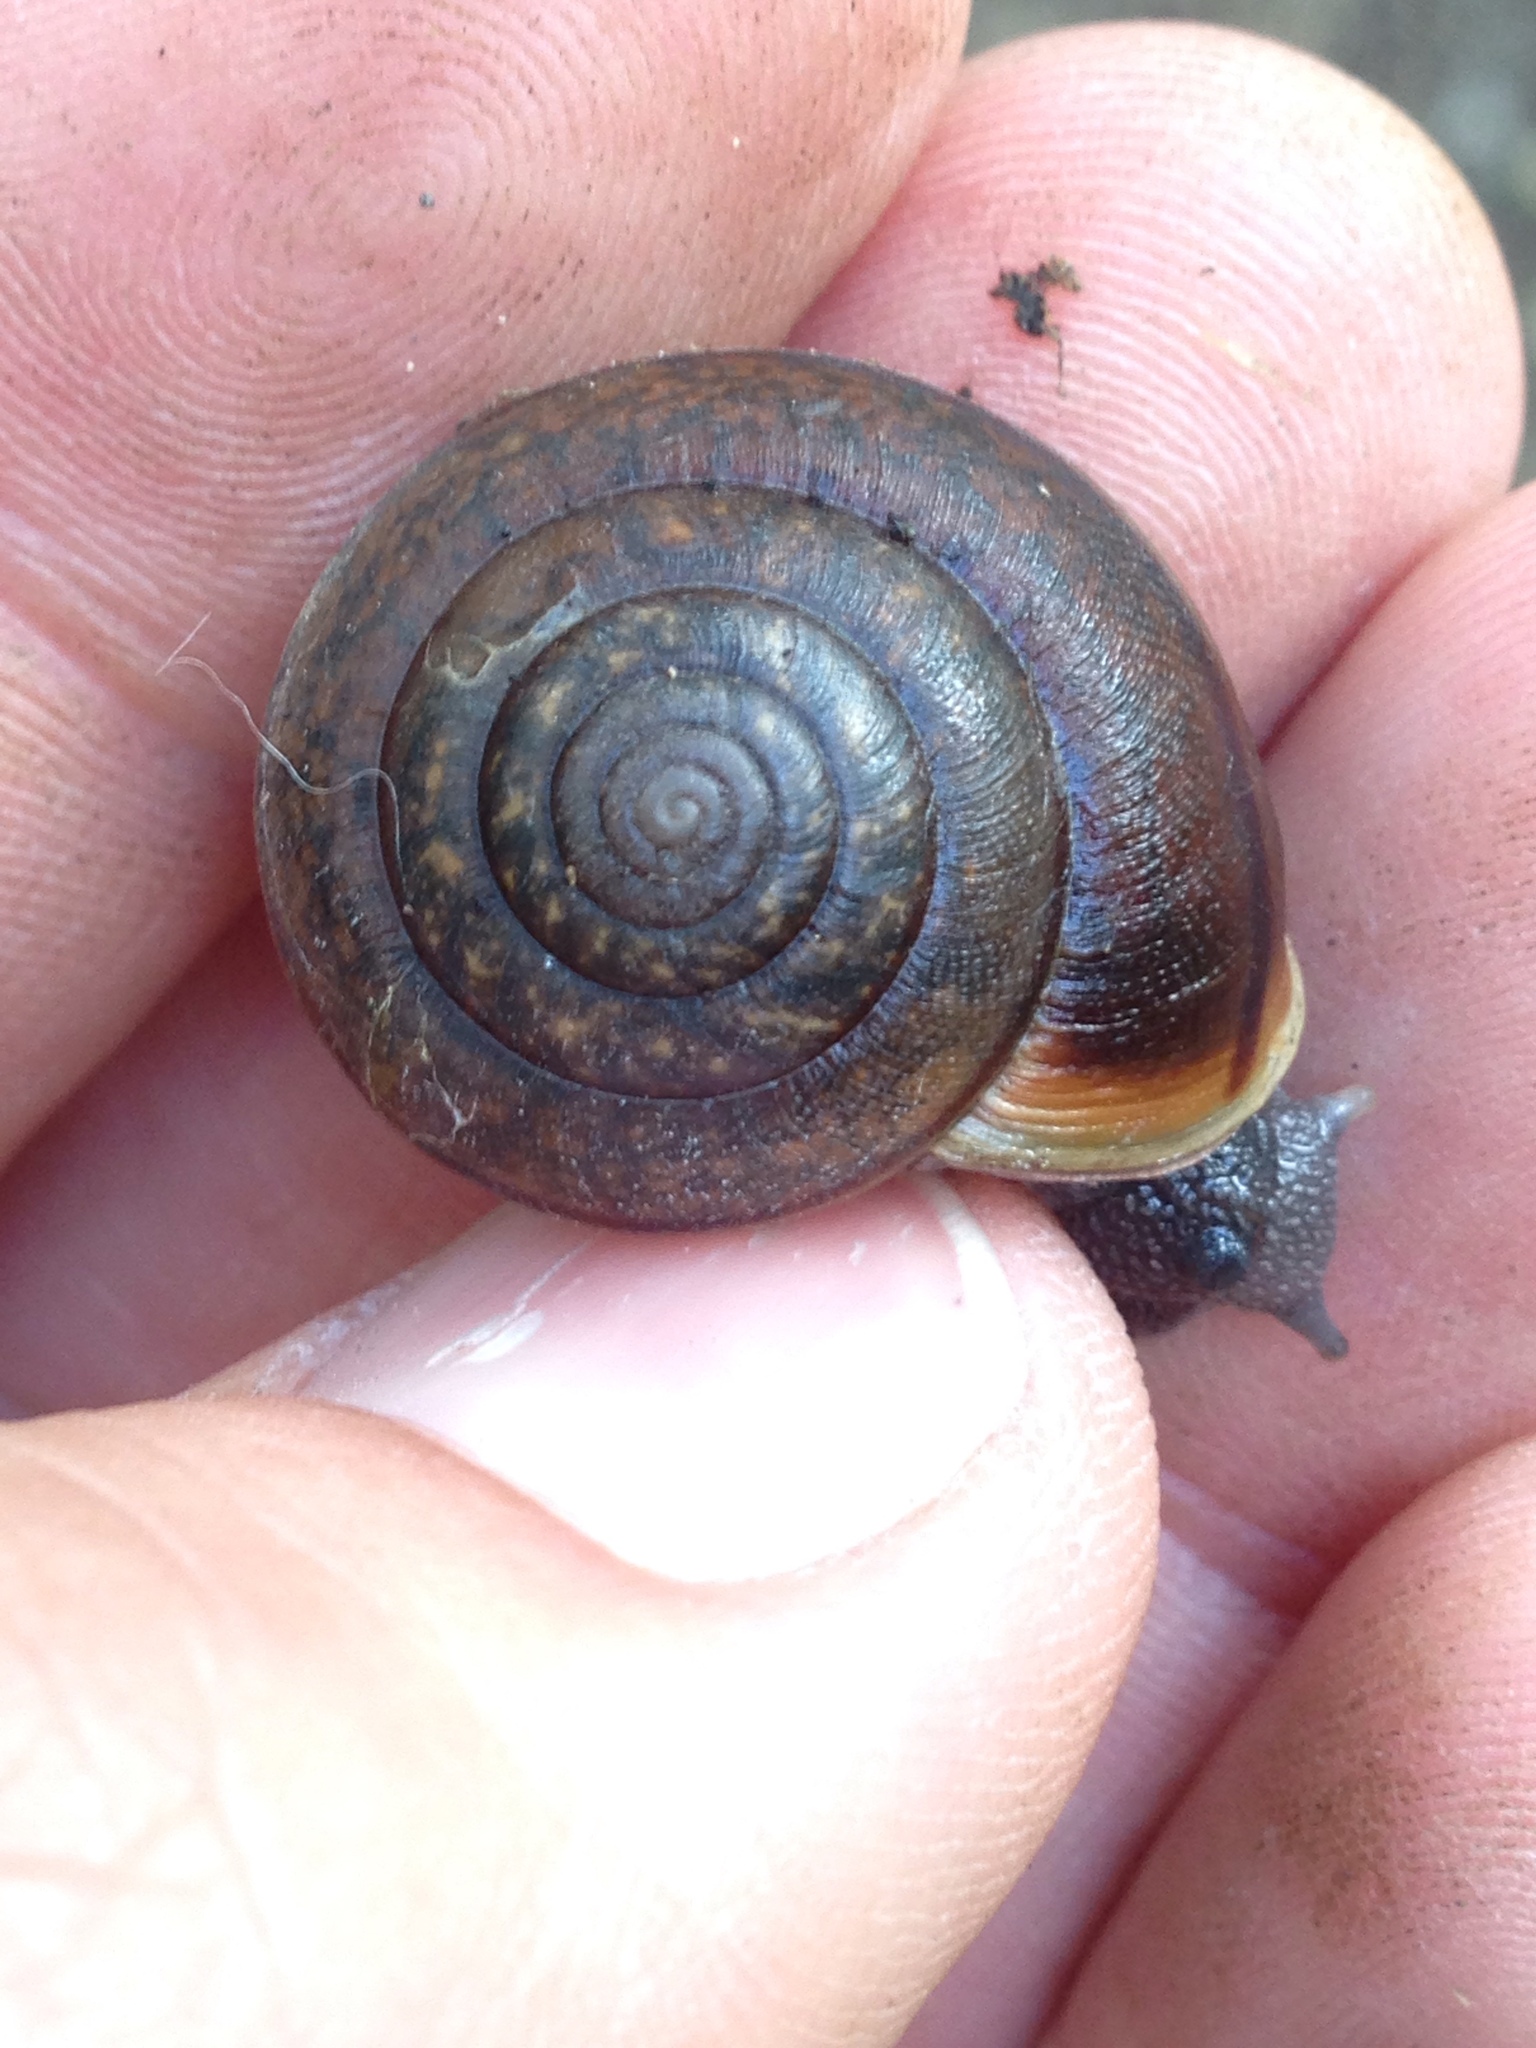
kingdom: Animalia
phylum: Mollusca
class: Gastropoda
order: Stylommatophora
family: Xanthonychidae
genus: Helminthoglypta
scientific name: Helminthoglypta diabloensis
